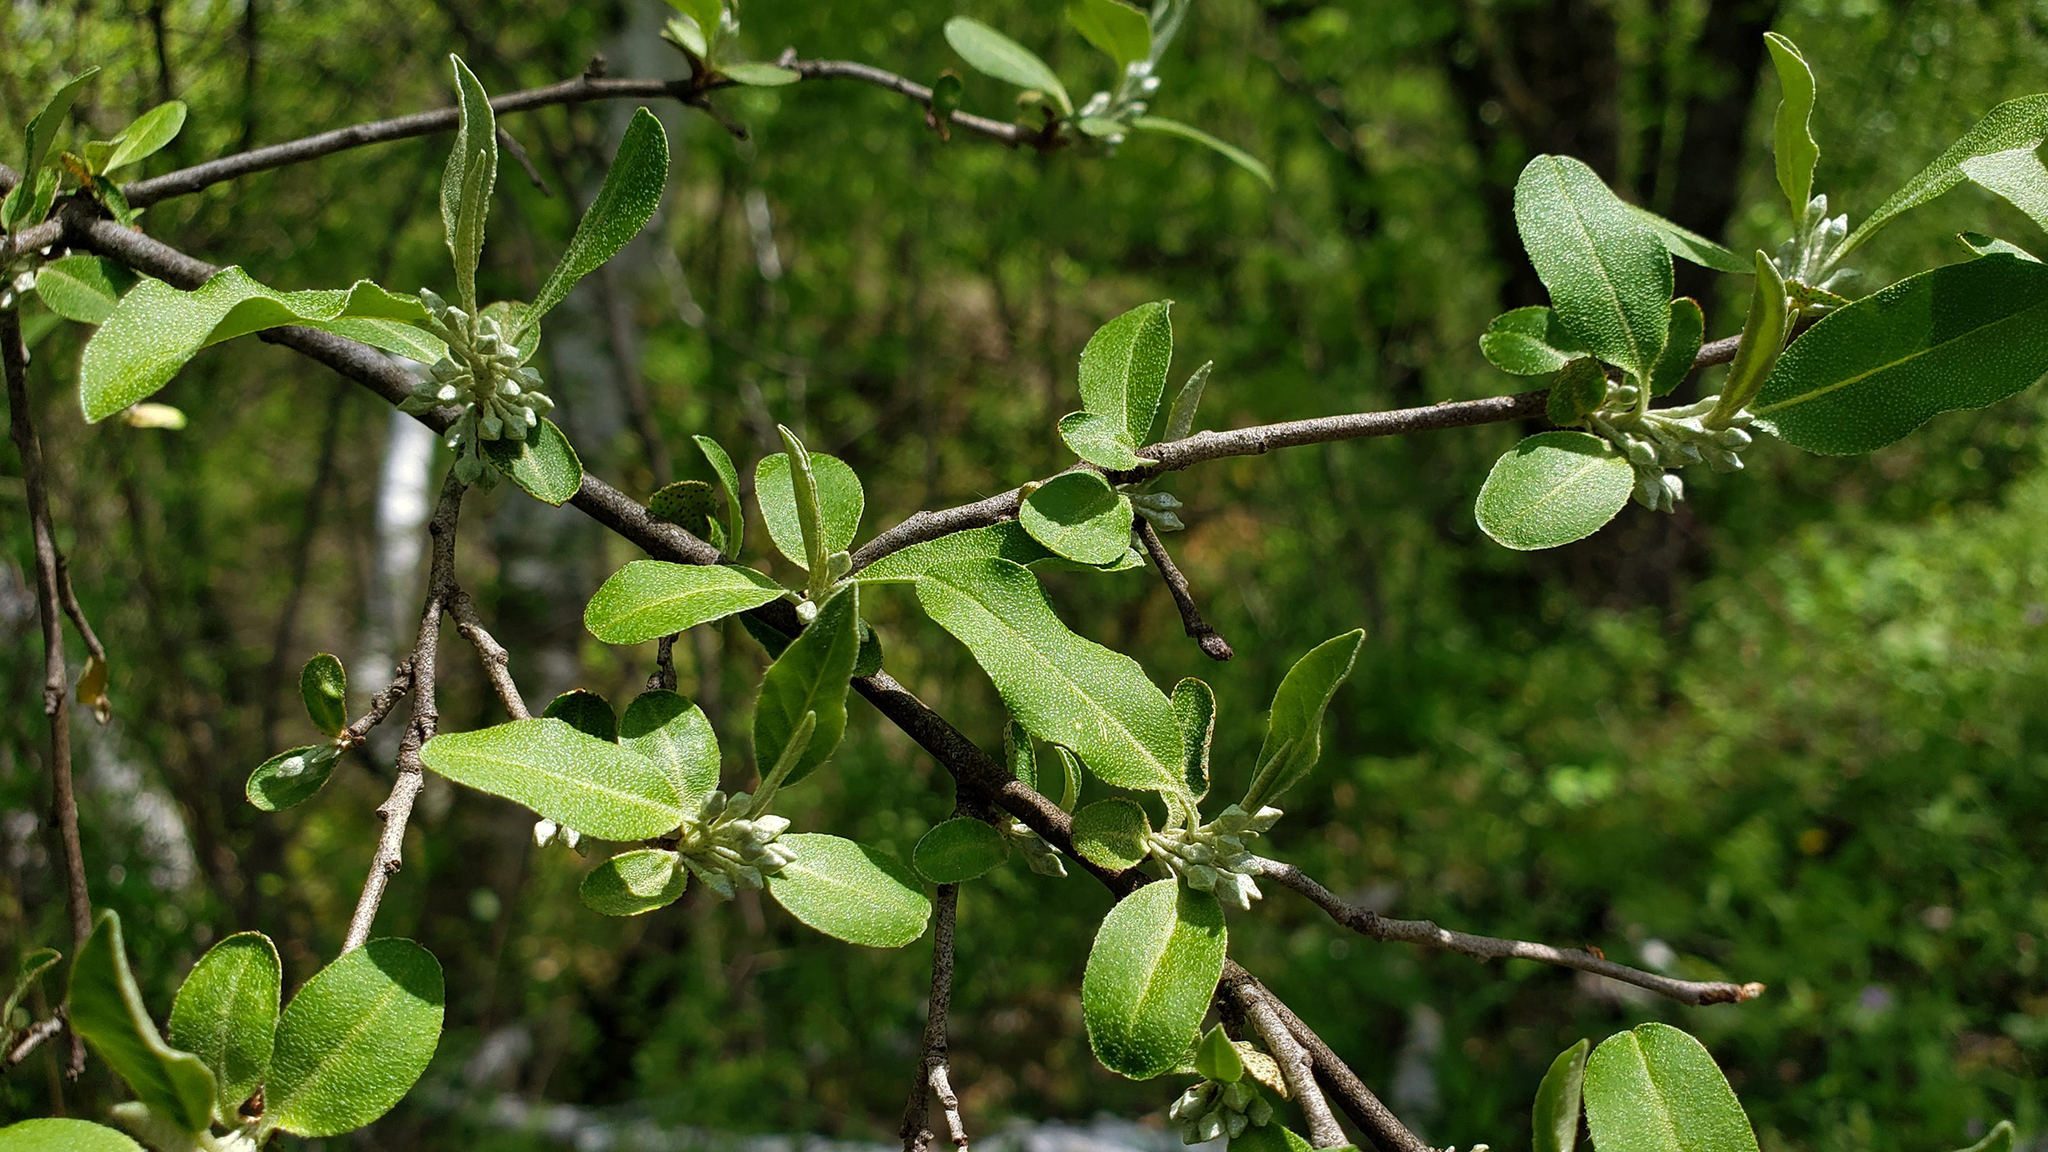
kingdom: Plantae
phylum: Tracheophyta
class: Magnoliopsida
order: Rosales
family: Elaeagnaceae
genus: Elaeagnus
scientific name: Elaeagnus umbellata
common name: Autumn olive
